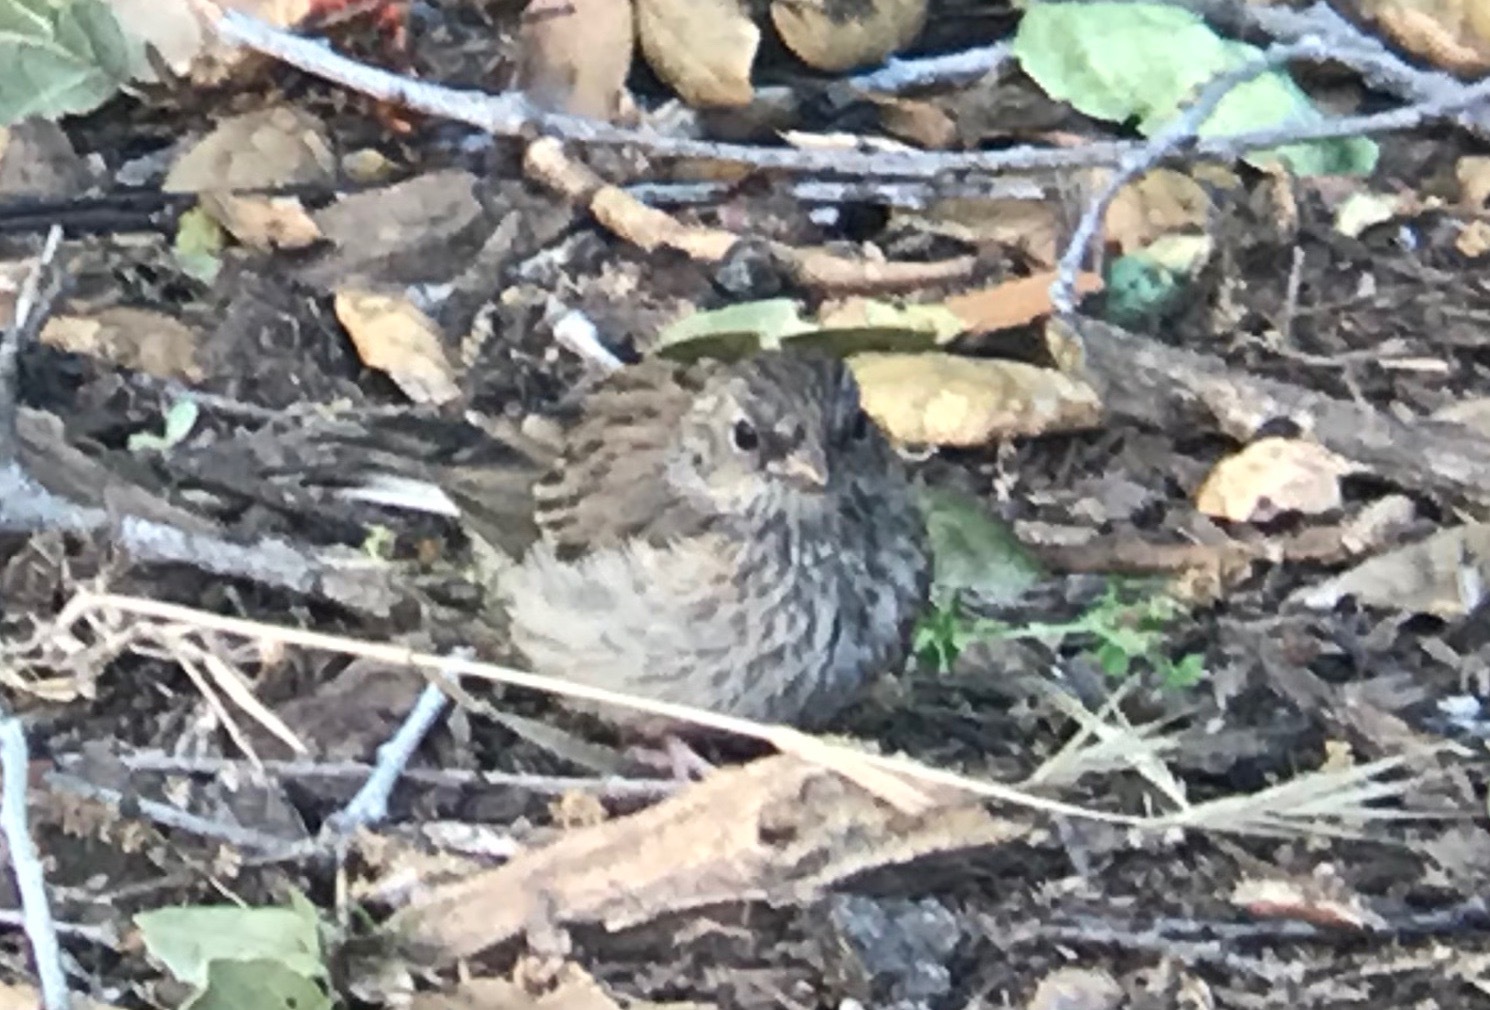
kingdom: Animalia
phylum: Chordata
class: Aves
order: Passeriformes
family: Passerellidae
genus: Junco
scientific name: Junco hyemalis
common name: Dark-eyed junco
